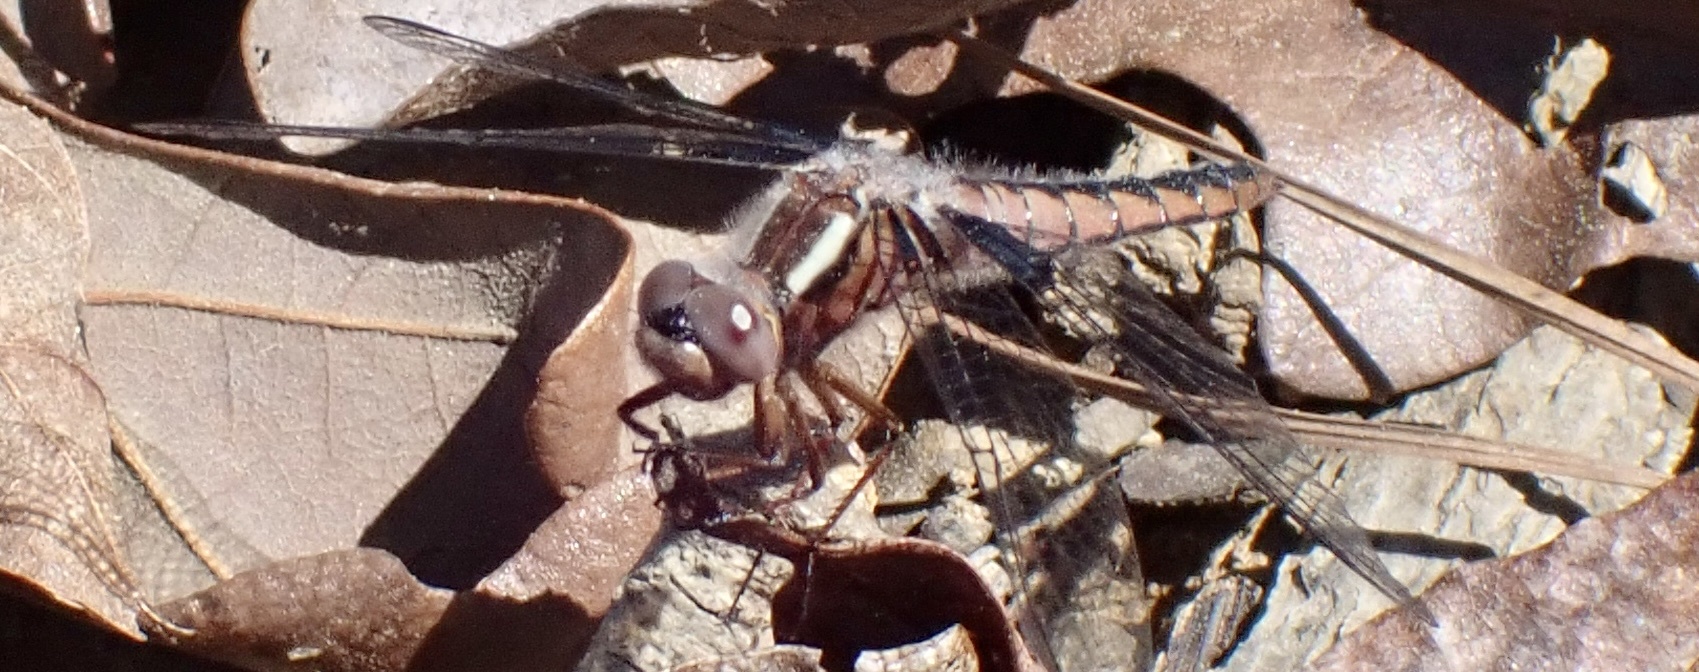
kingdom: Animalia
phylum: Arthropoda
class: Insecta
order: Odonata
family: Libellulidae
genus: Ladona
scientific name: Ladona deplanata
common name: Blue corporal
